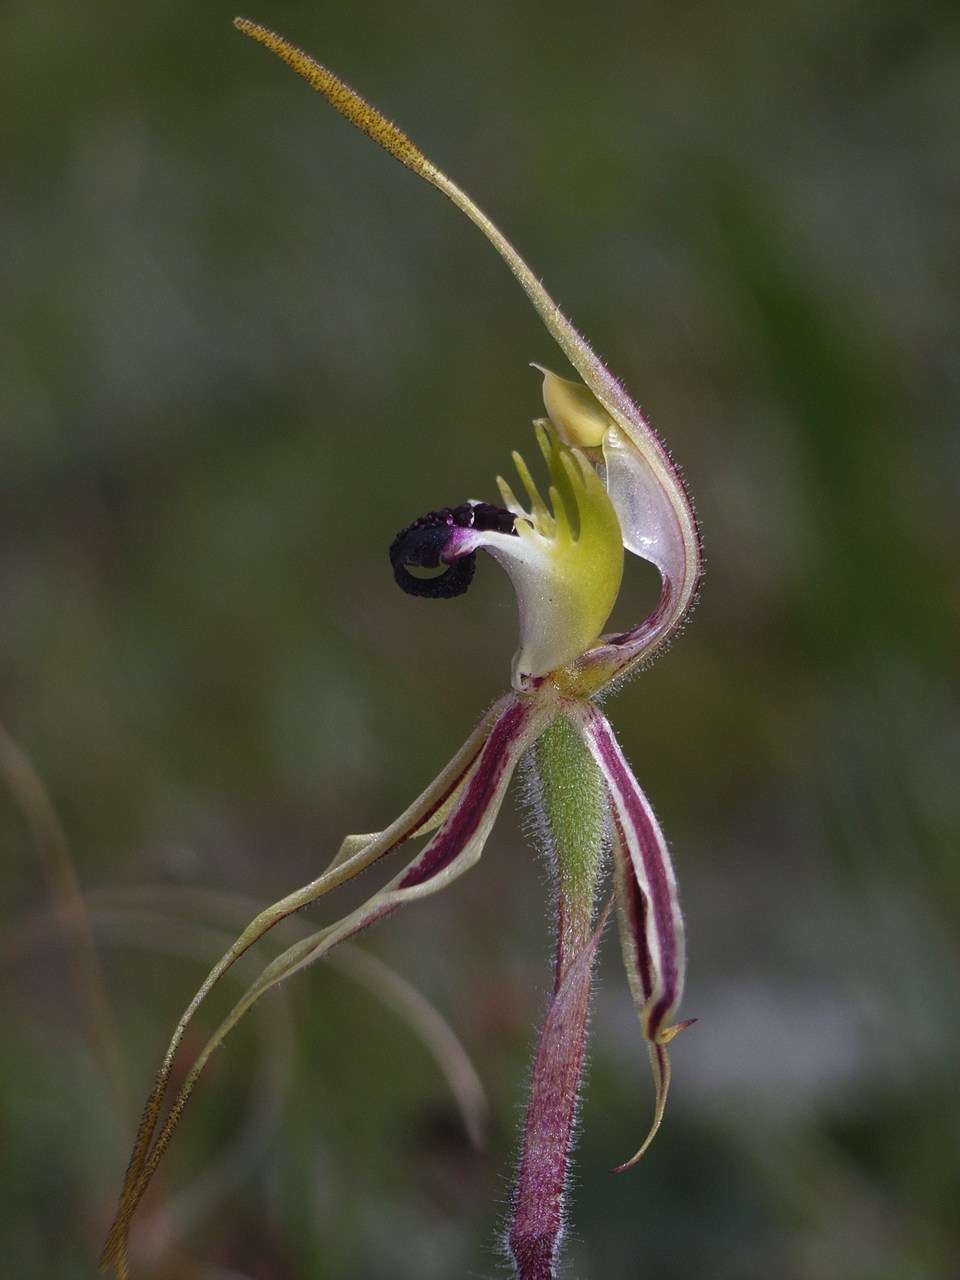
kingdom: Plantae
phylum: Tracheophyta
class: Liliopsida
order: Asparagales
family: Orchidaceae
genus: Caladenia
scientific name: Caladenia parva
